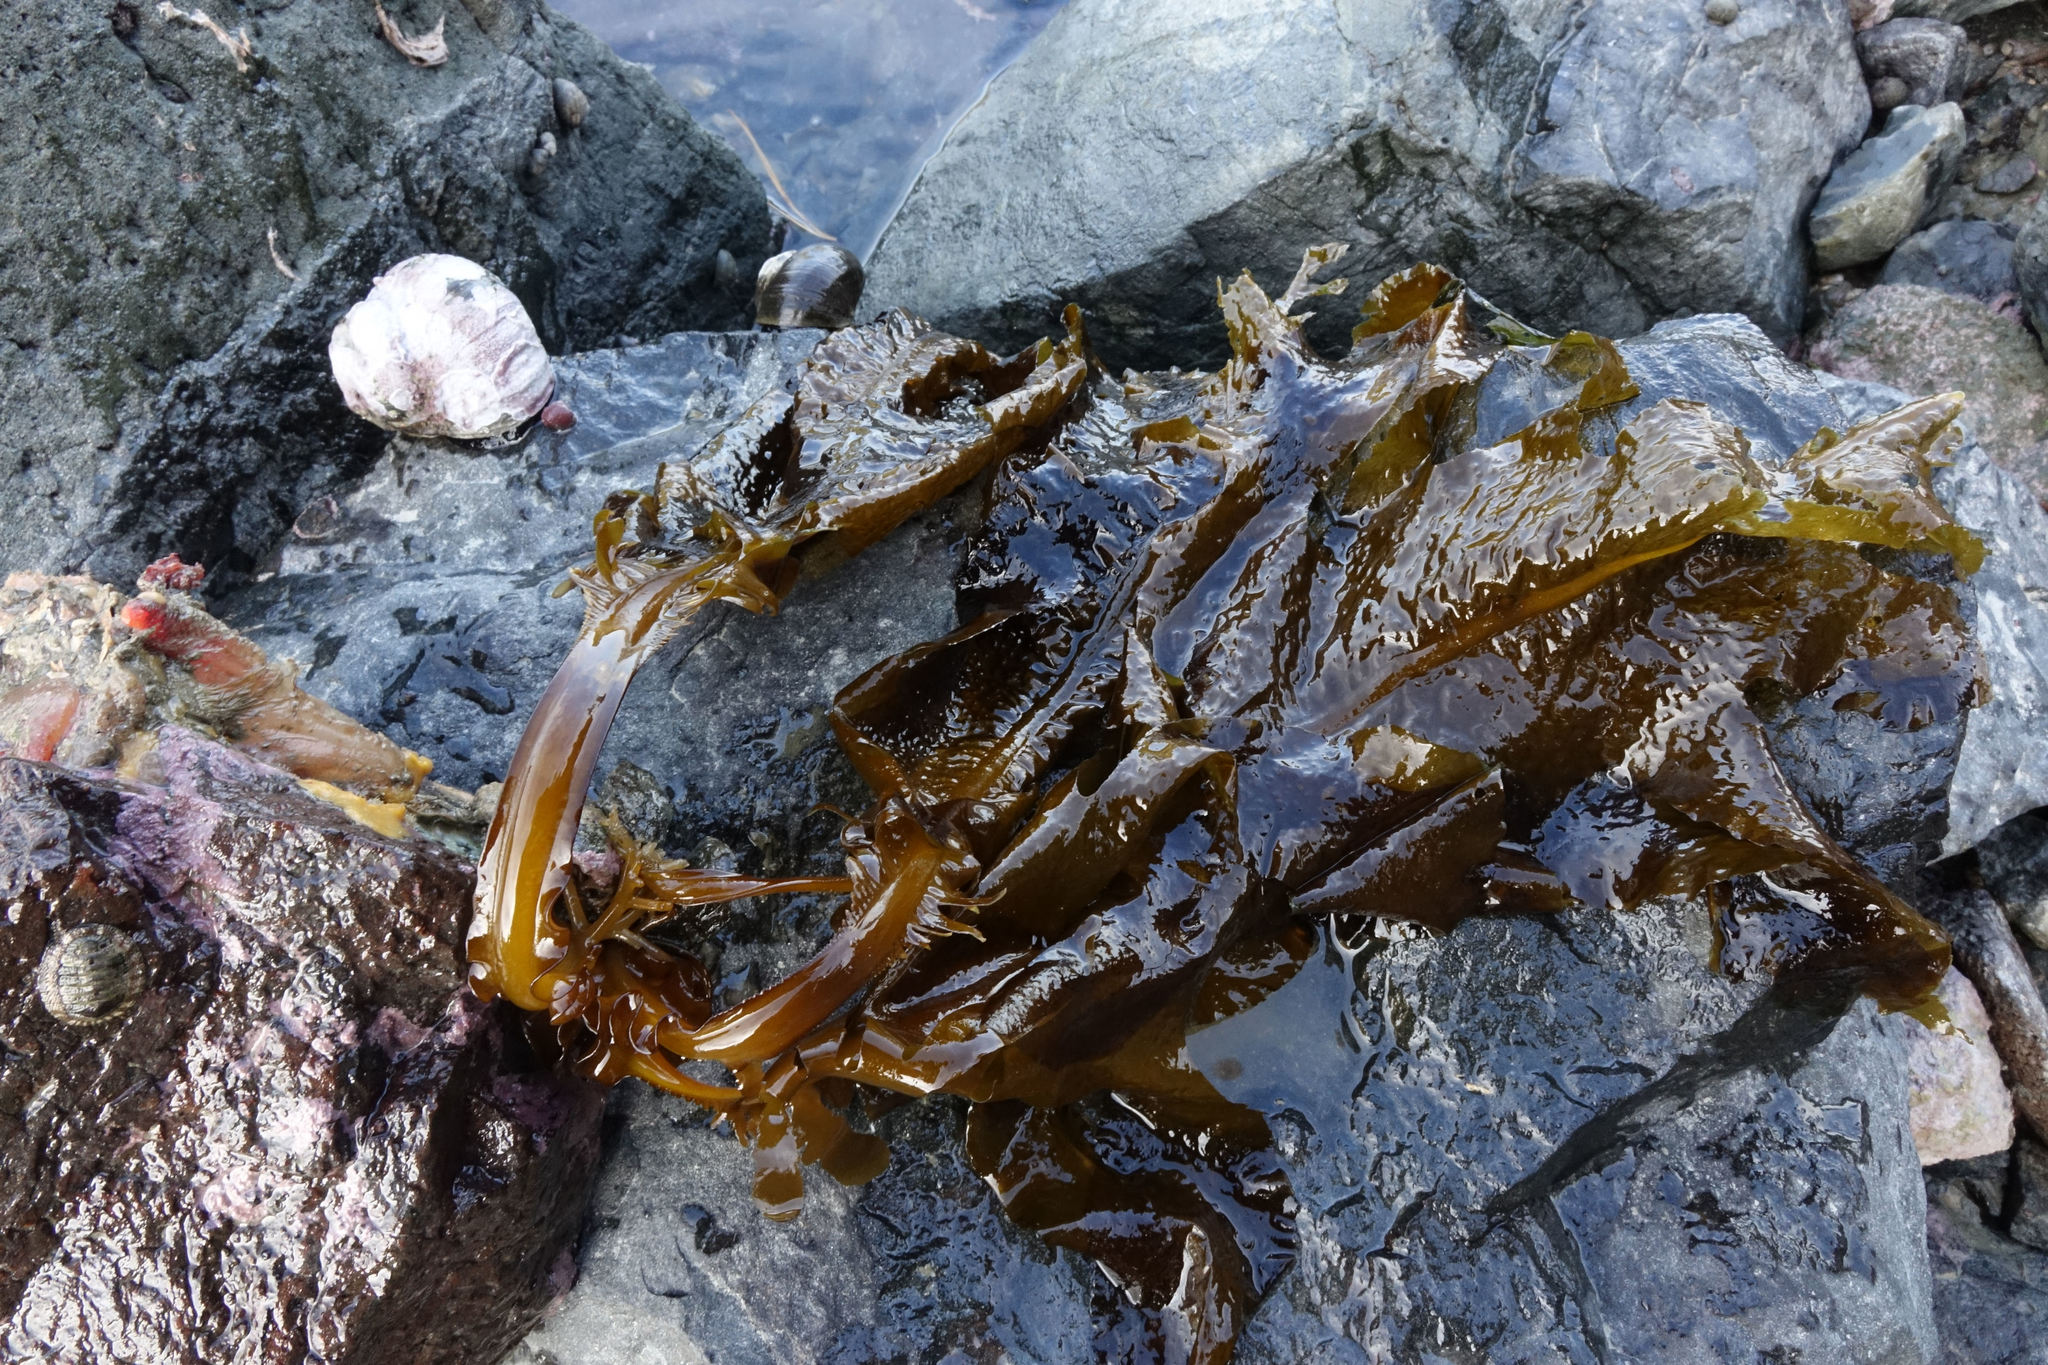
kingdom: Chromista
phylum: Ochrophyta
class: Phaeophyceae
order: Laminariales
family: Alariaceae
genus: Undaria
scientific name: Undaria pinnatifida
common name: Asian kelp
